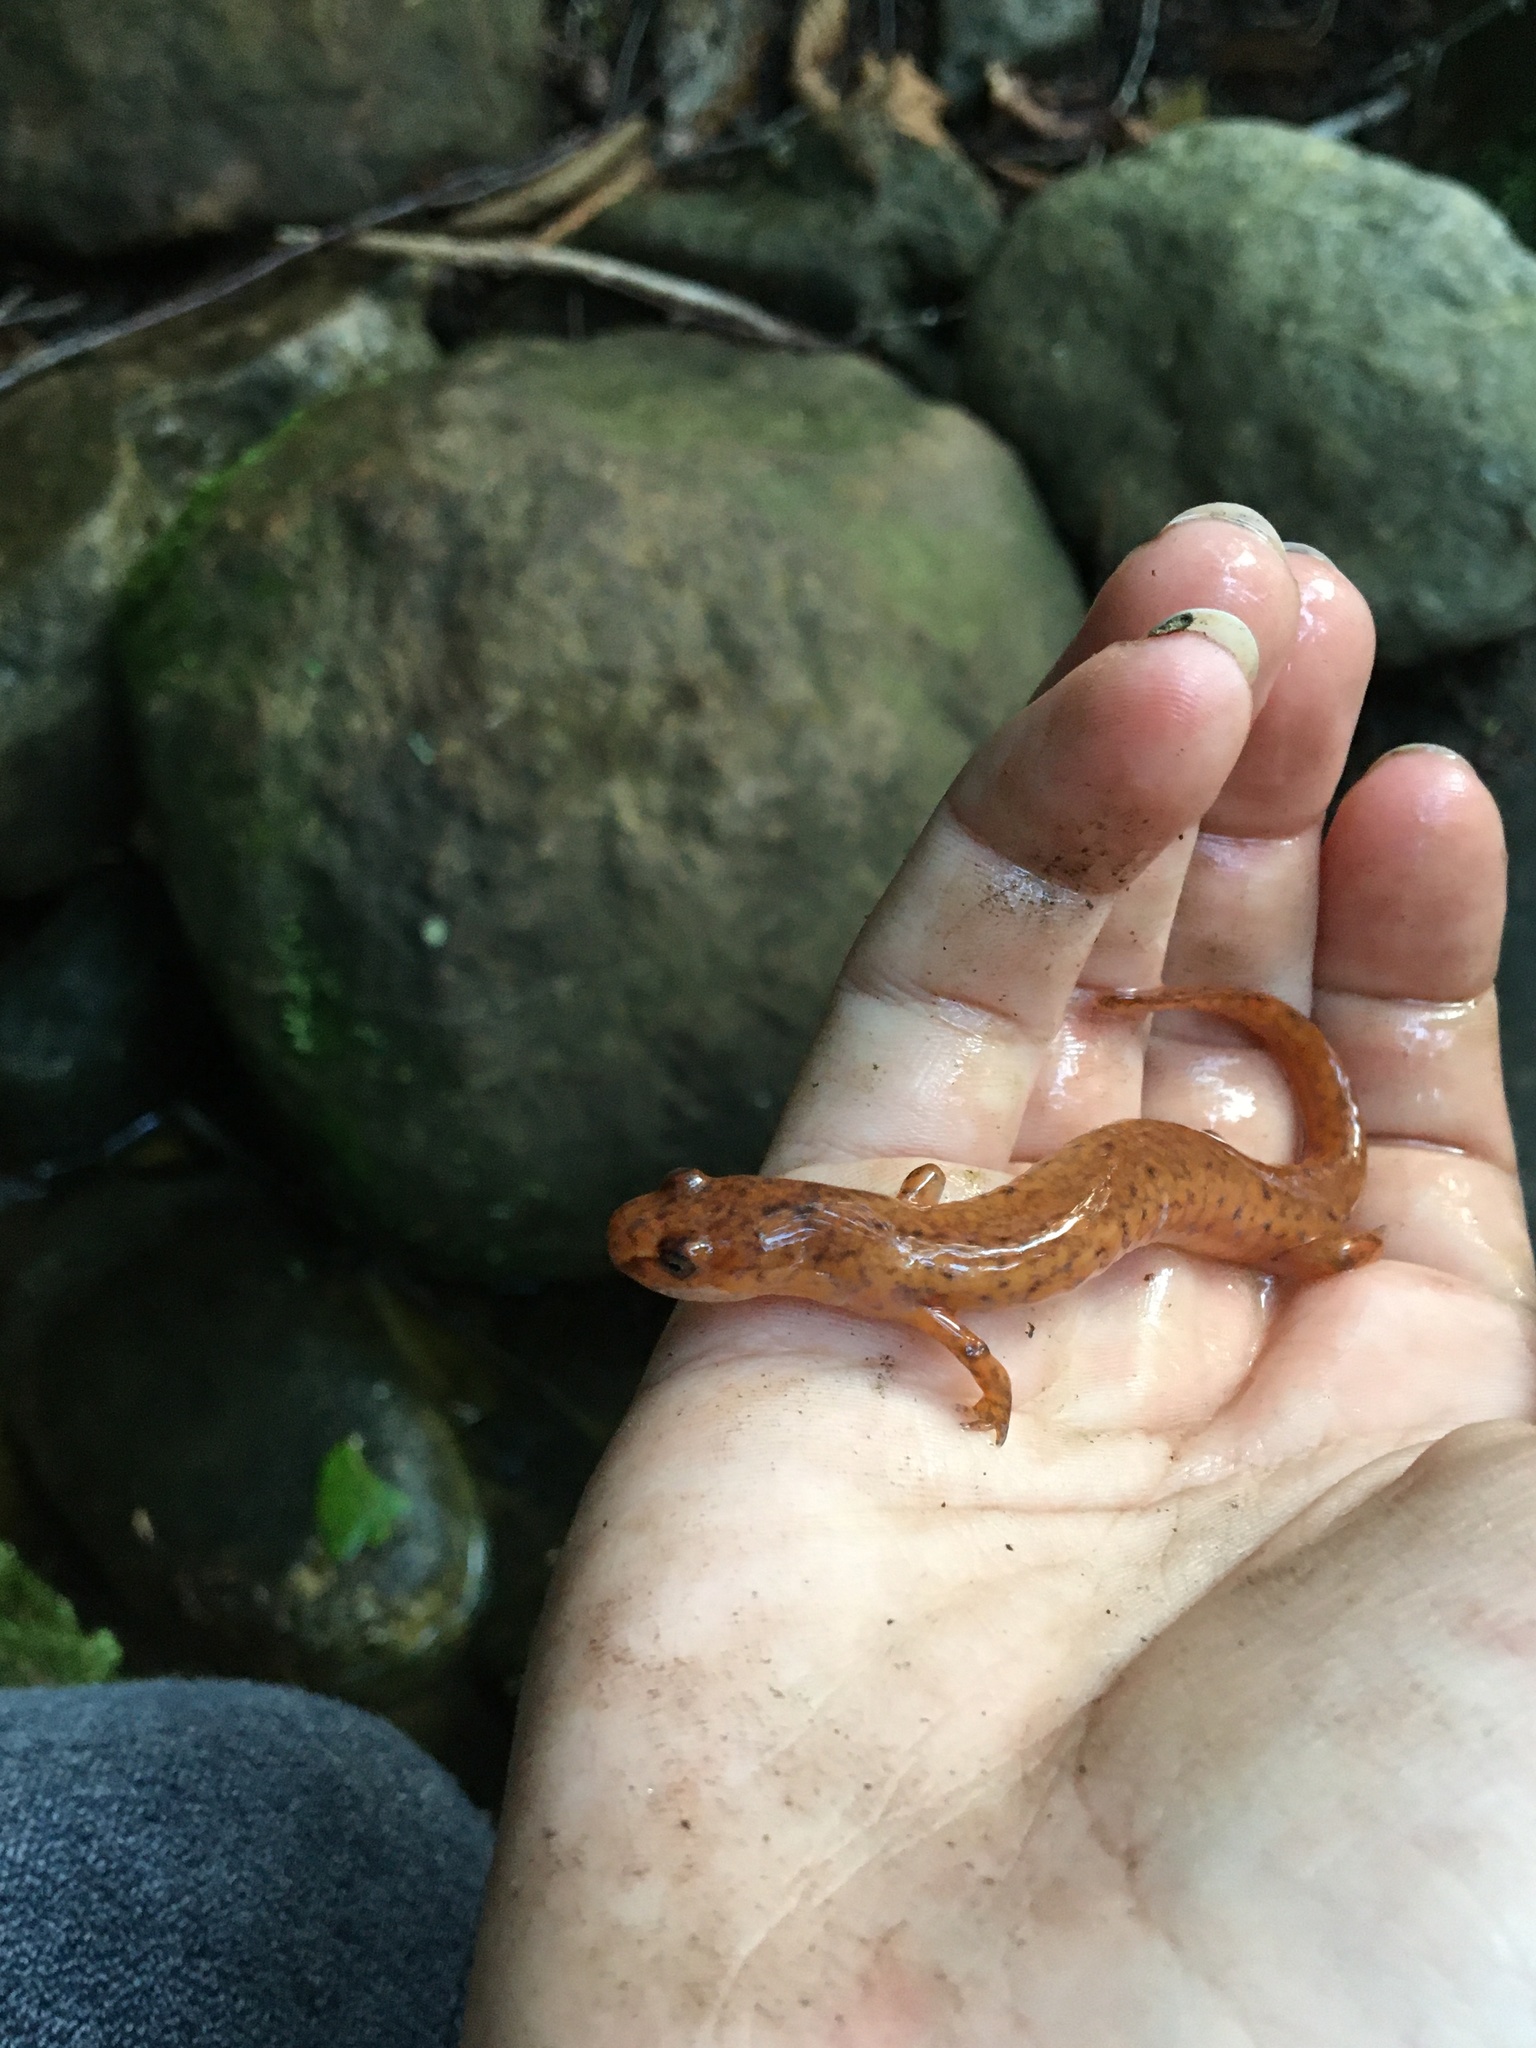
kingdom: Animalia
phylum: Chordata
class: Amphibia
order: Caudata
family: Plethodontidae
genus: Gyrinophilus
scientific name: Gyrinophilus porphyriticus
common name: Spring salamander
